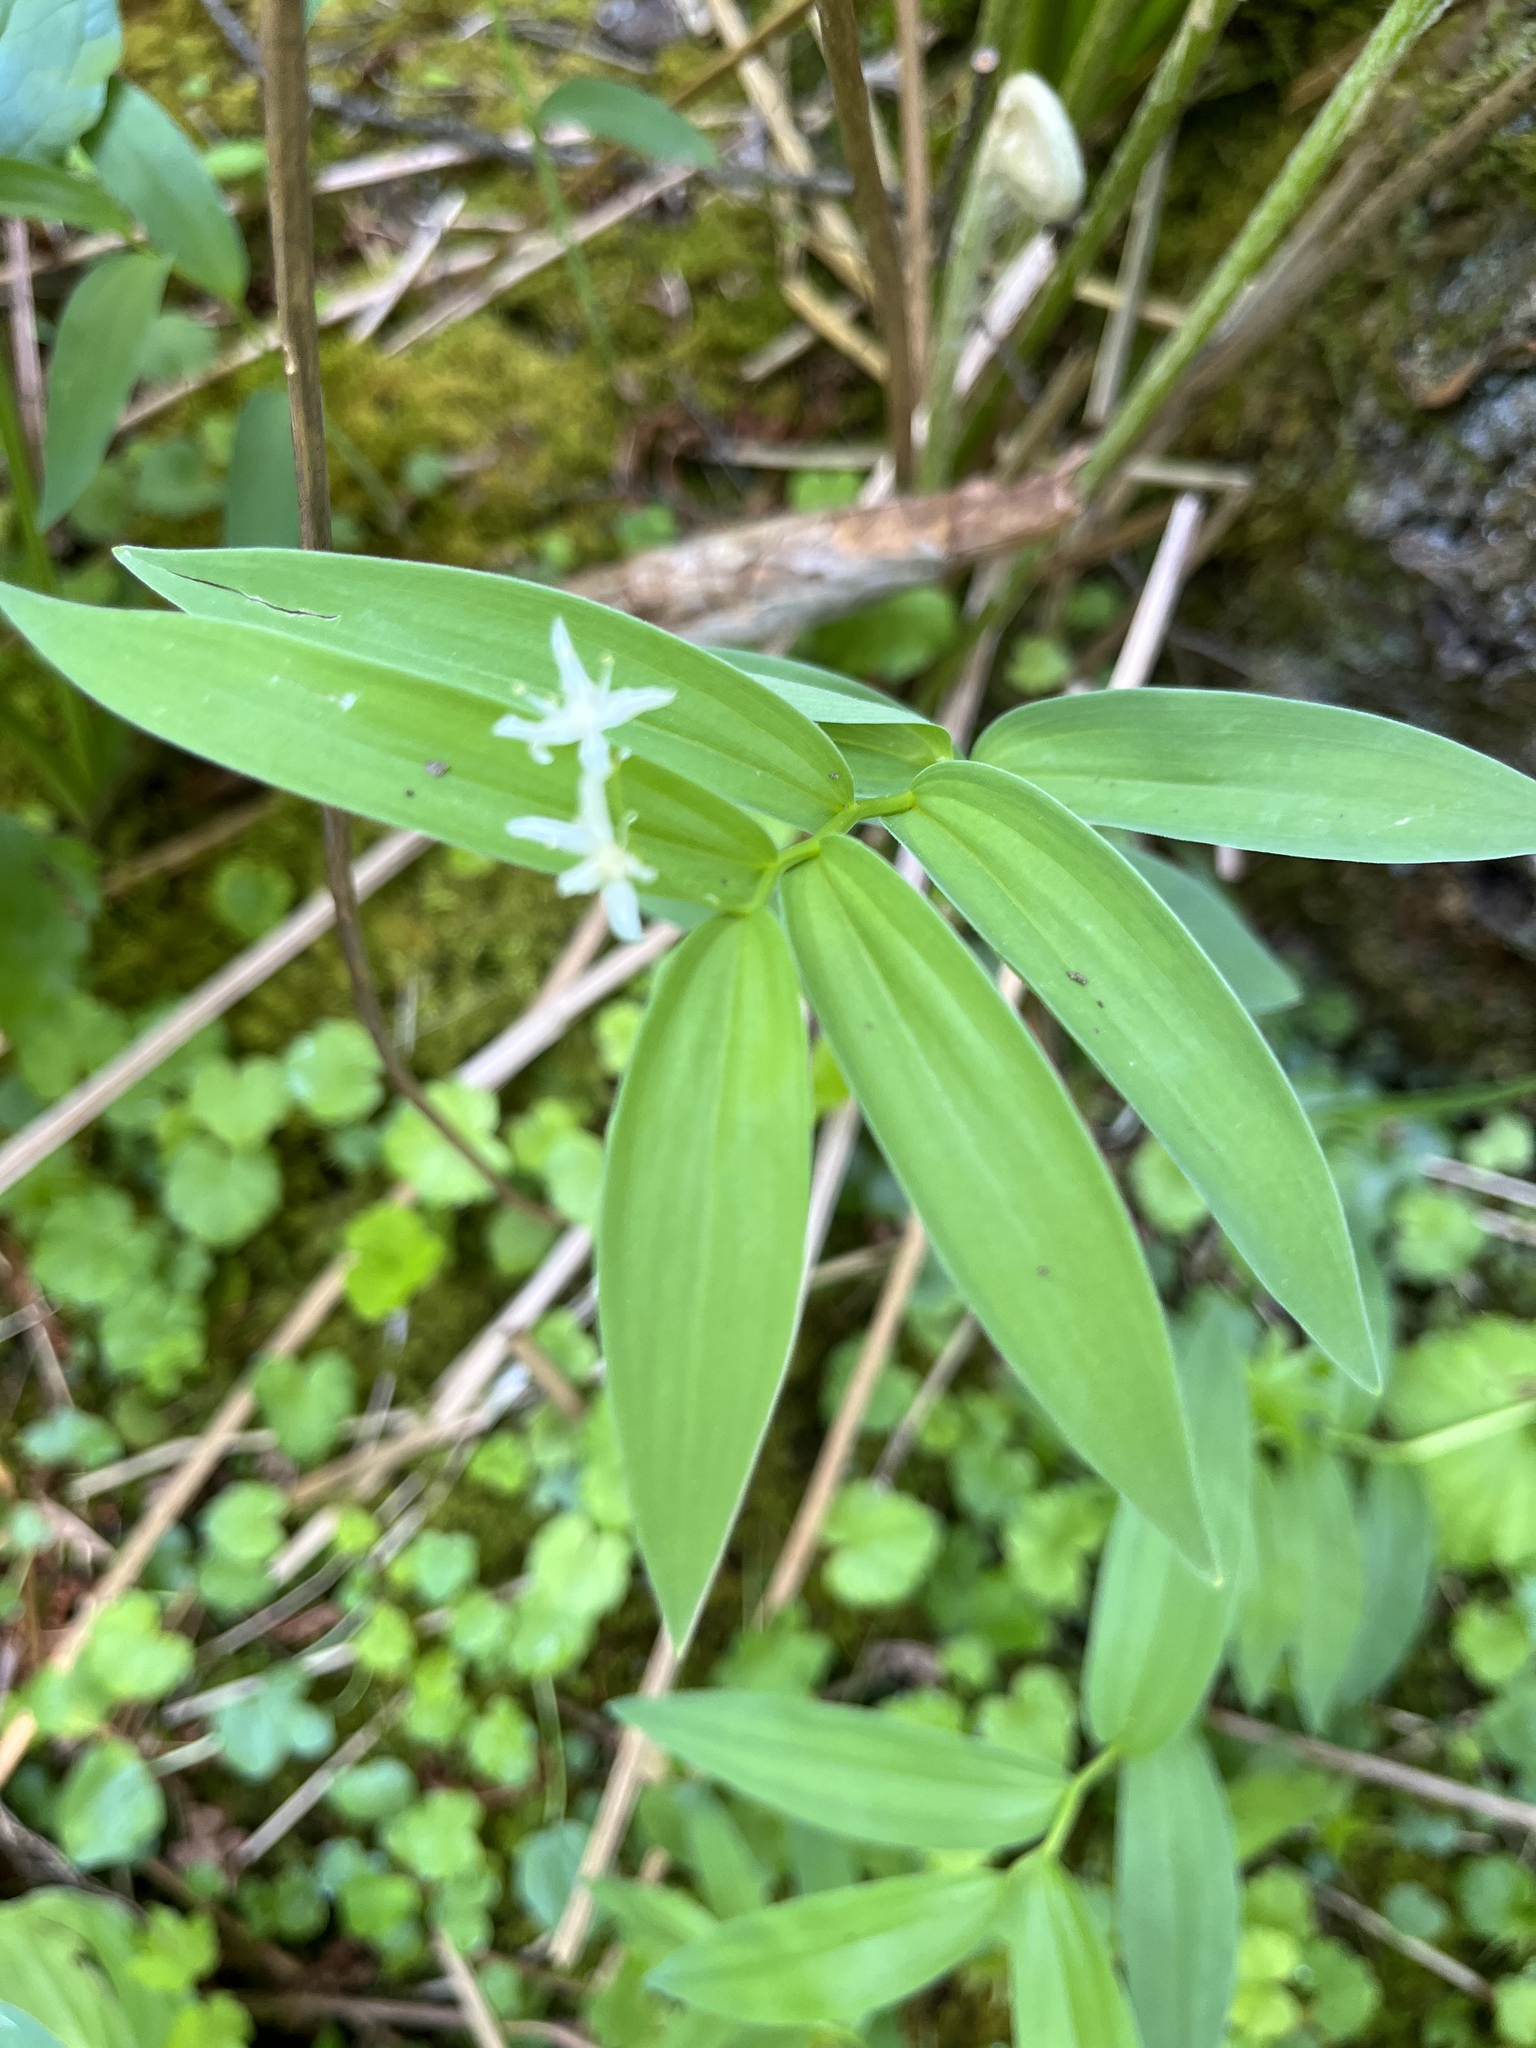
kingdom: Plantae
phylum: Tracheophyta
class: Liliopsida
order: Asparagales
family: Asparagaceae
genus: Maianthemum
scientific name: Maianthemum stellatum
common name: Little false solomon's seal
